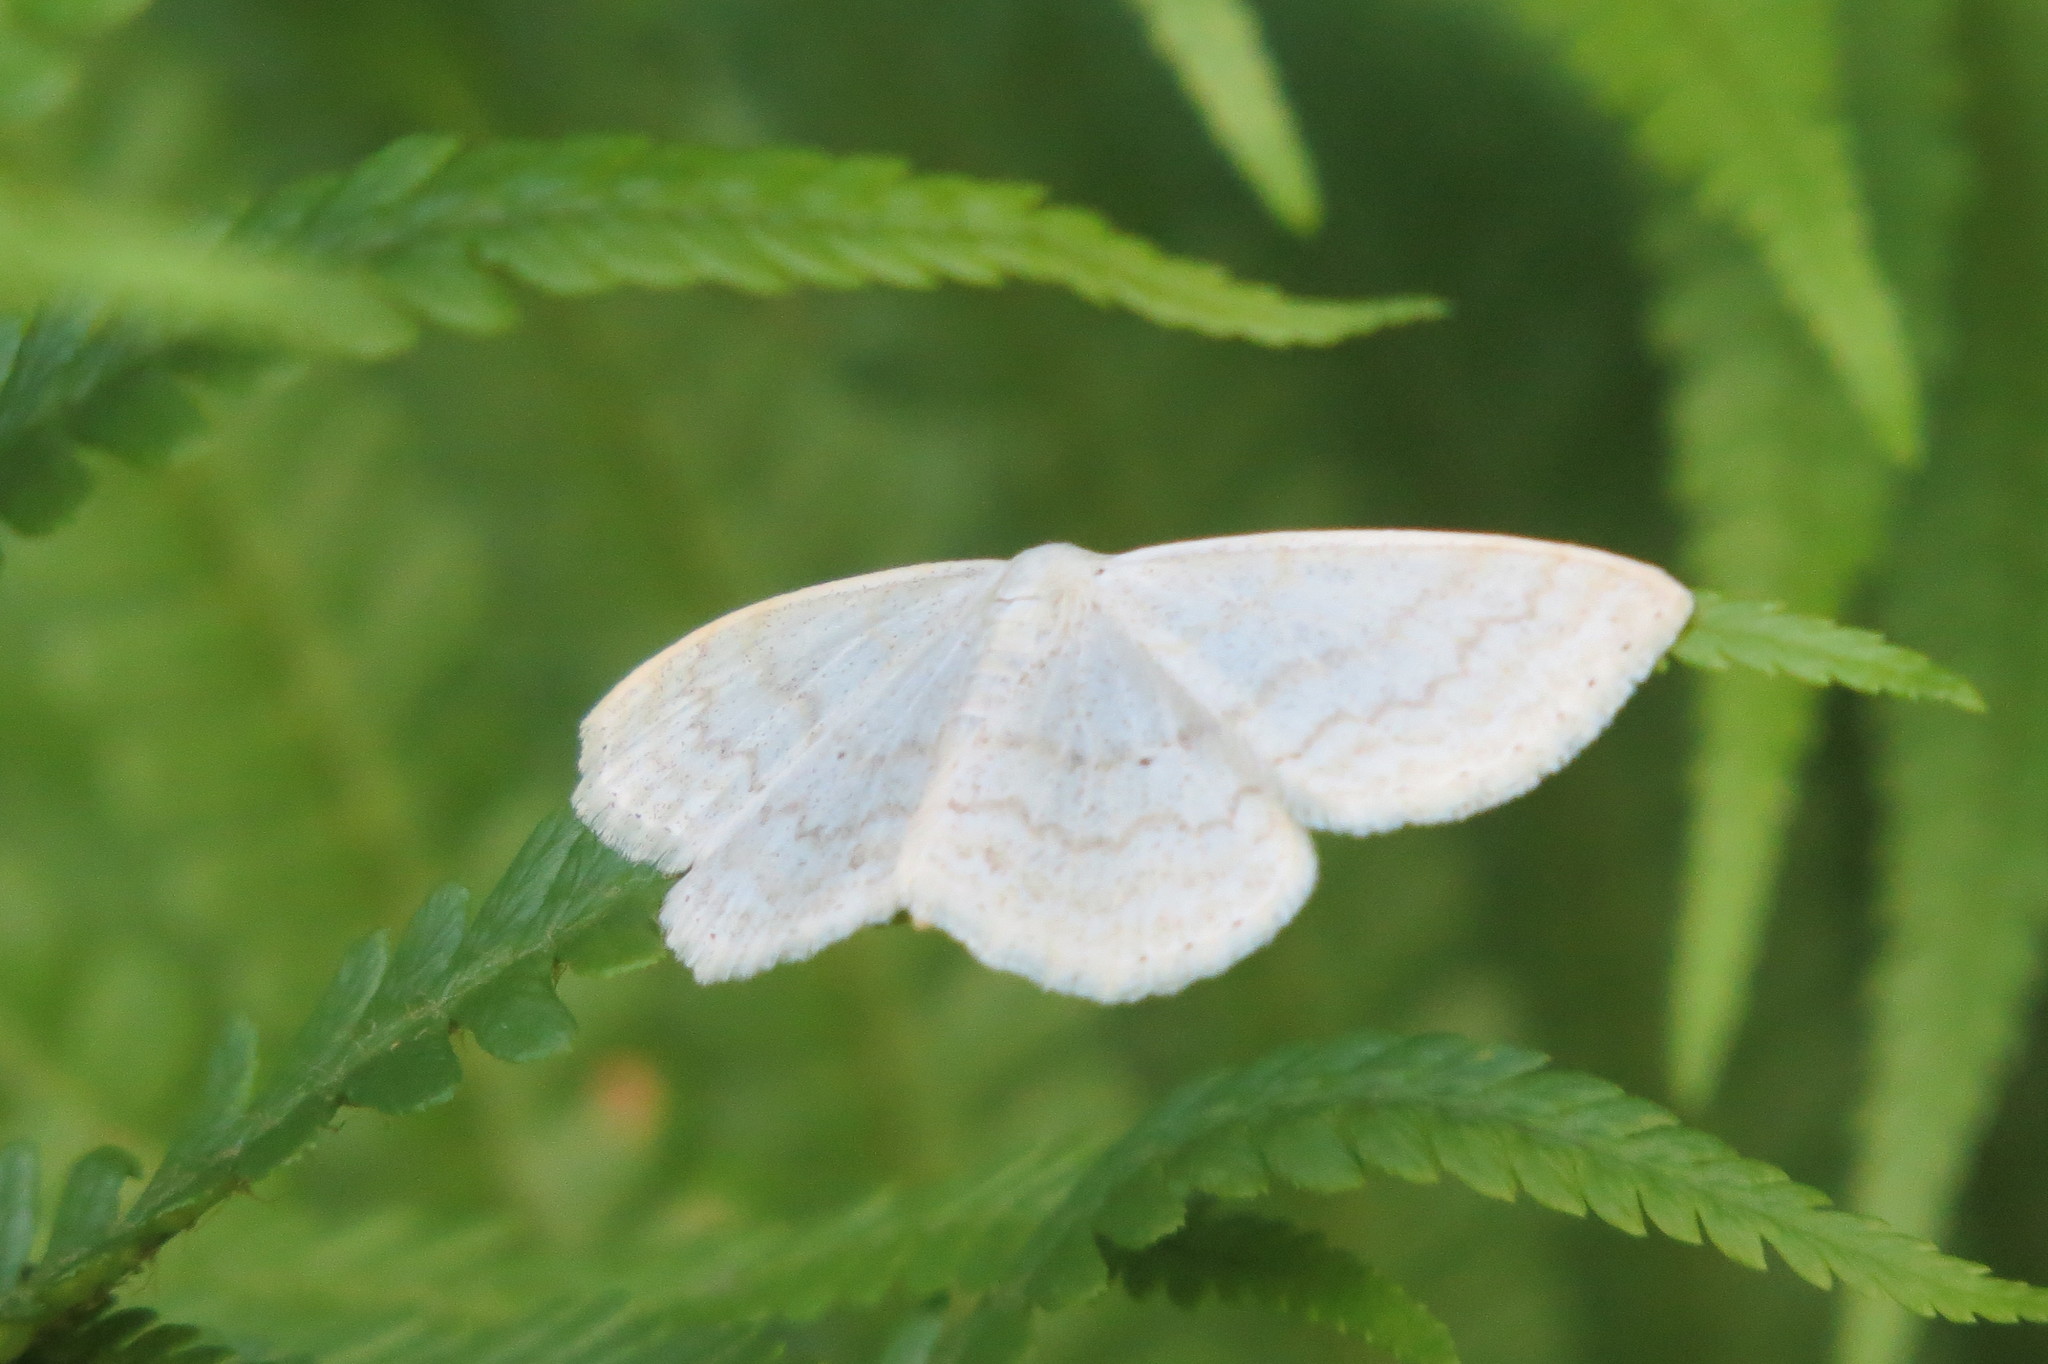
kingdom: Animalia
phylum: Arthropoda
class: Insecta
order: Lepidoptera
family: Geometridae
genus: Scopula
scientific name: Scopula floslactata
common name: Cream wave
